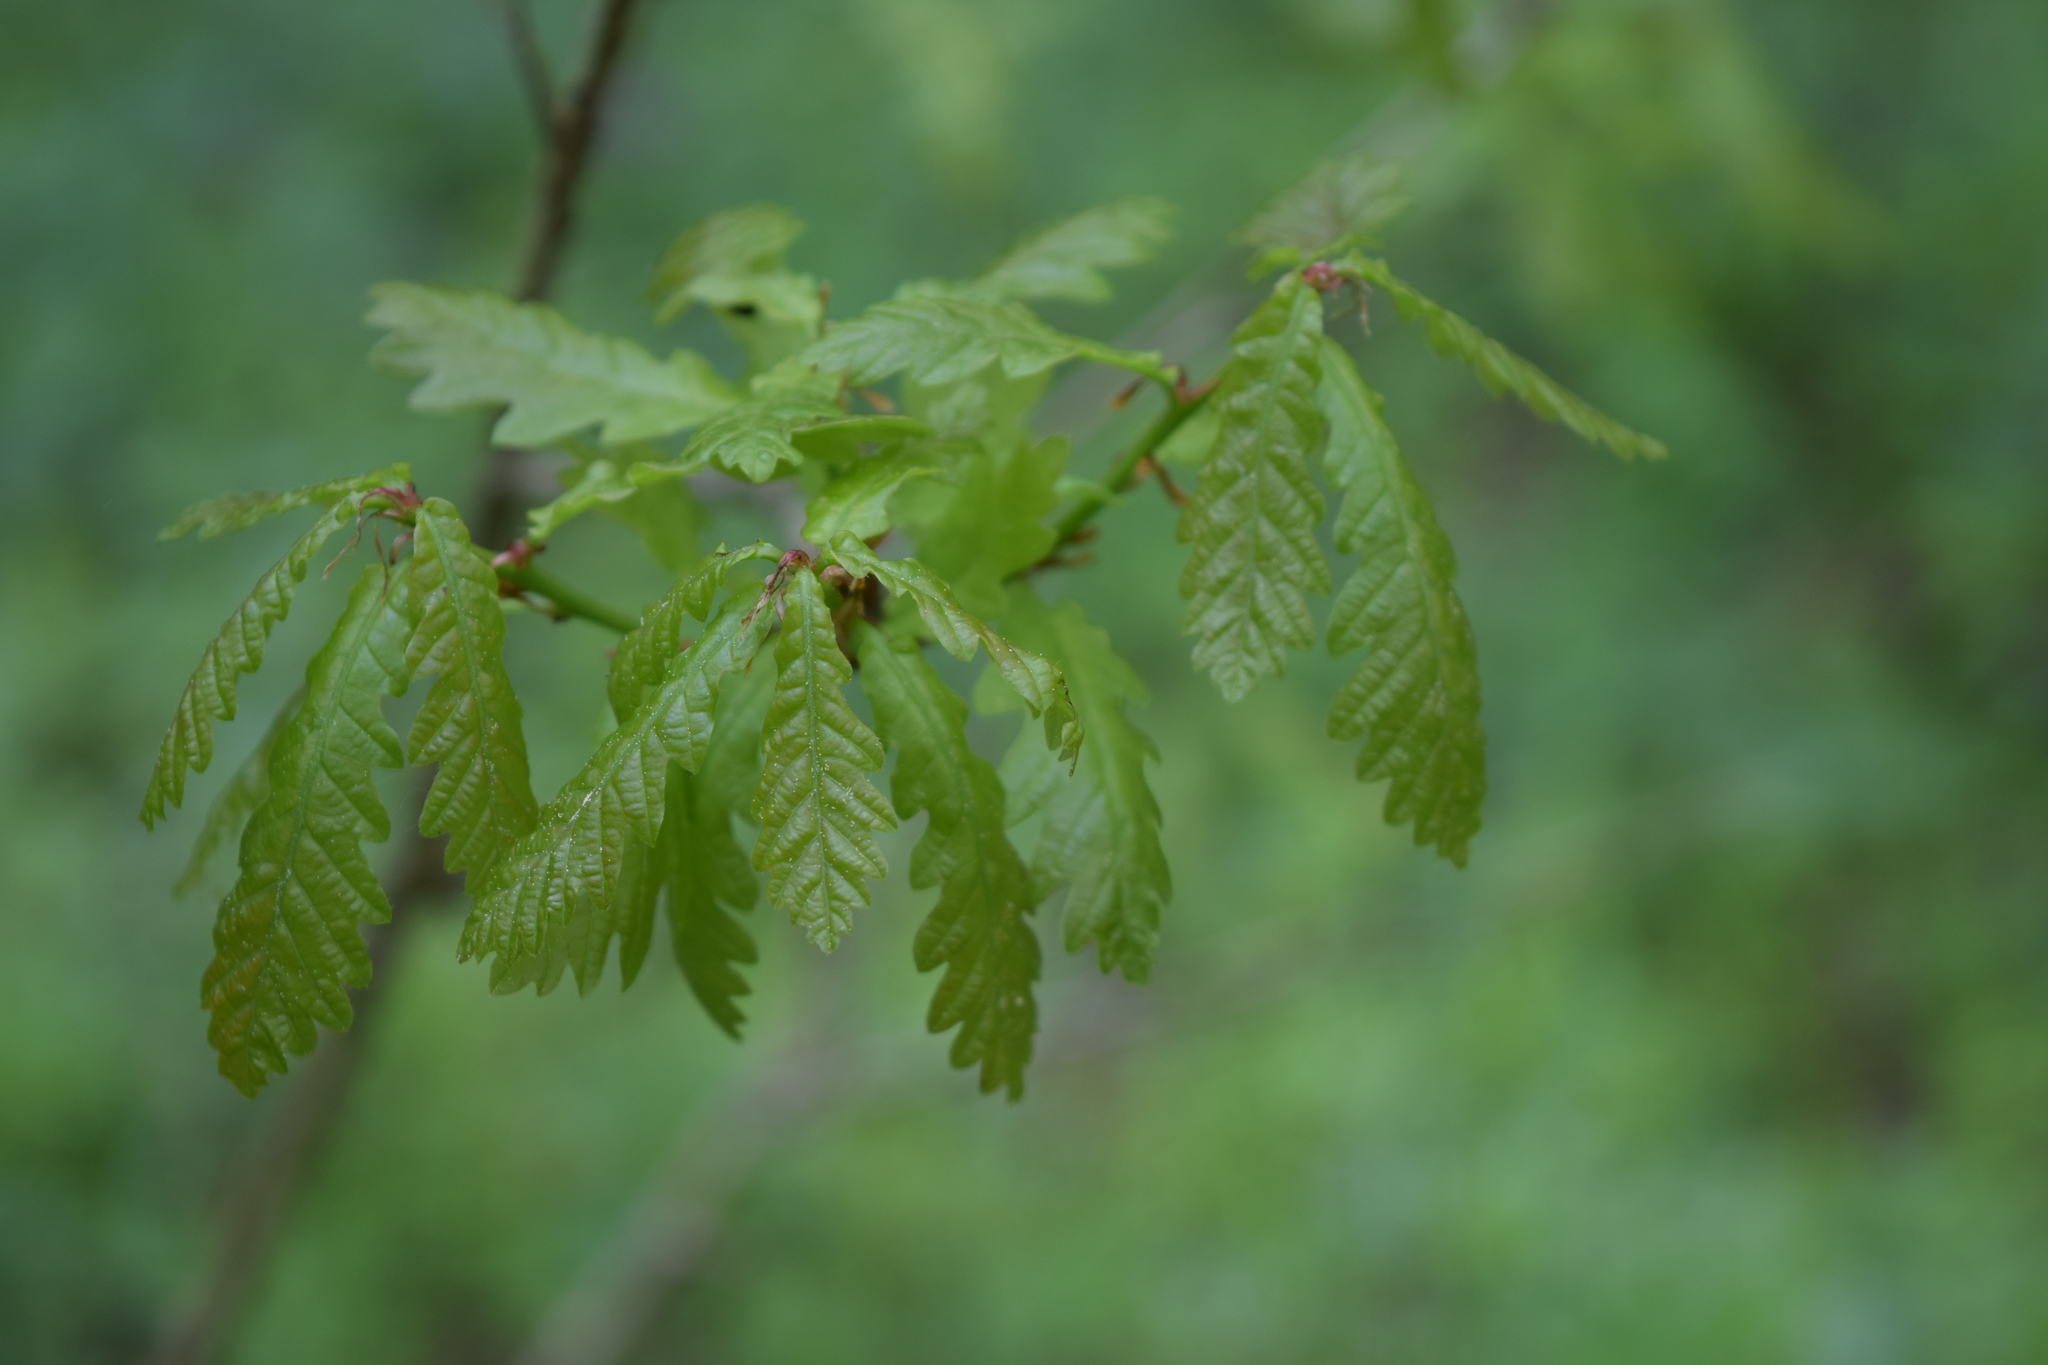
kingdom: Plantae
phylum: Tracheophyta
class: Magnoliopsida
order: Fagales
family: Fagaceae
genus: Quercus
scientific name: Quercus robur
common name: Pedunculate oak
